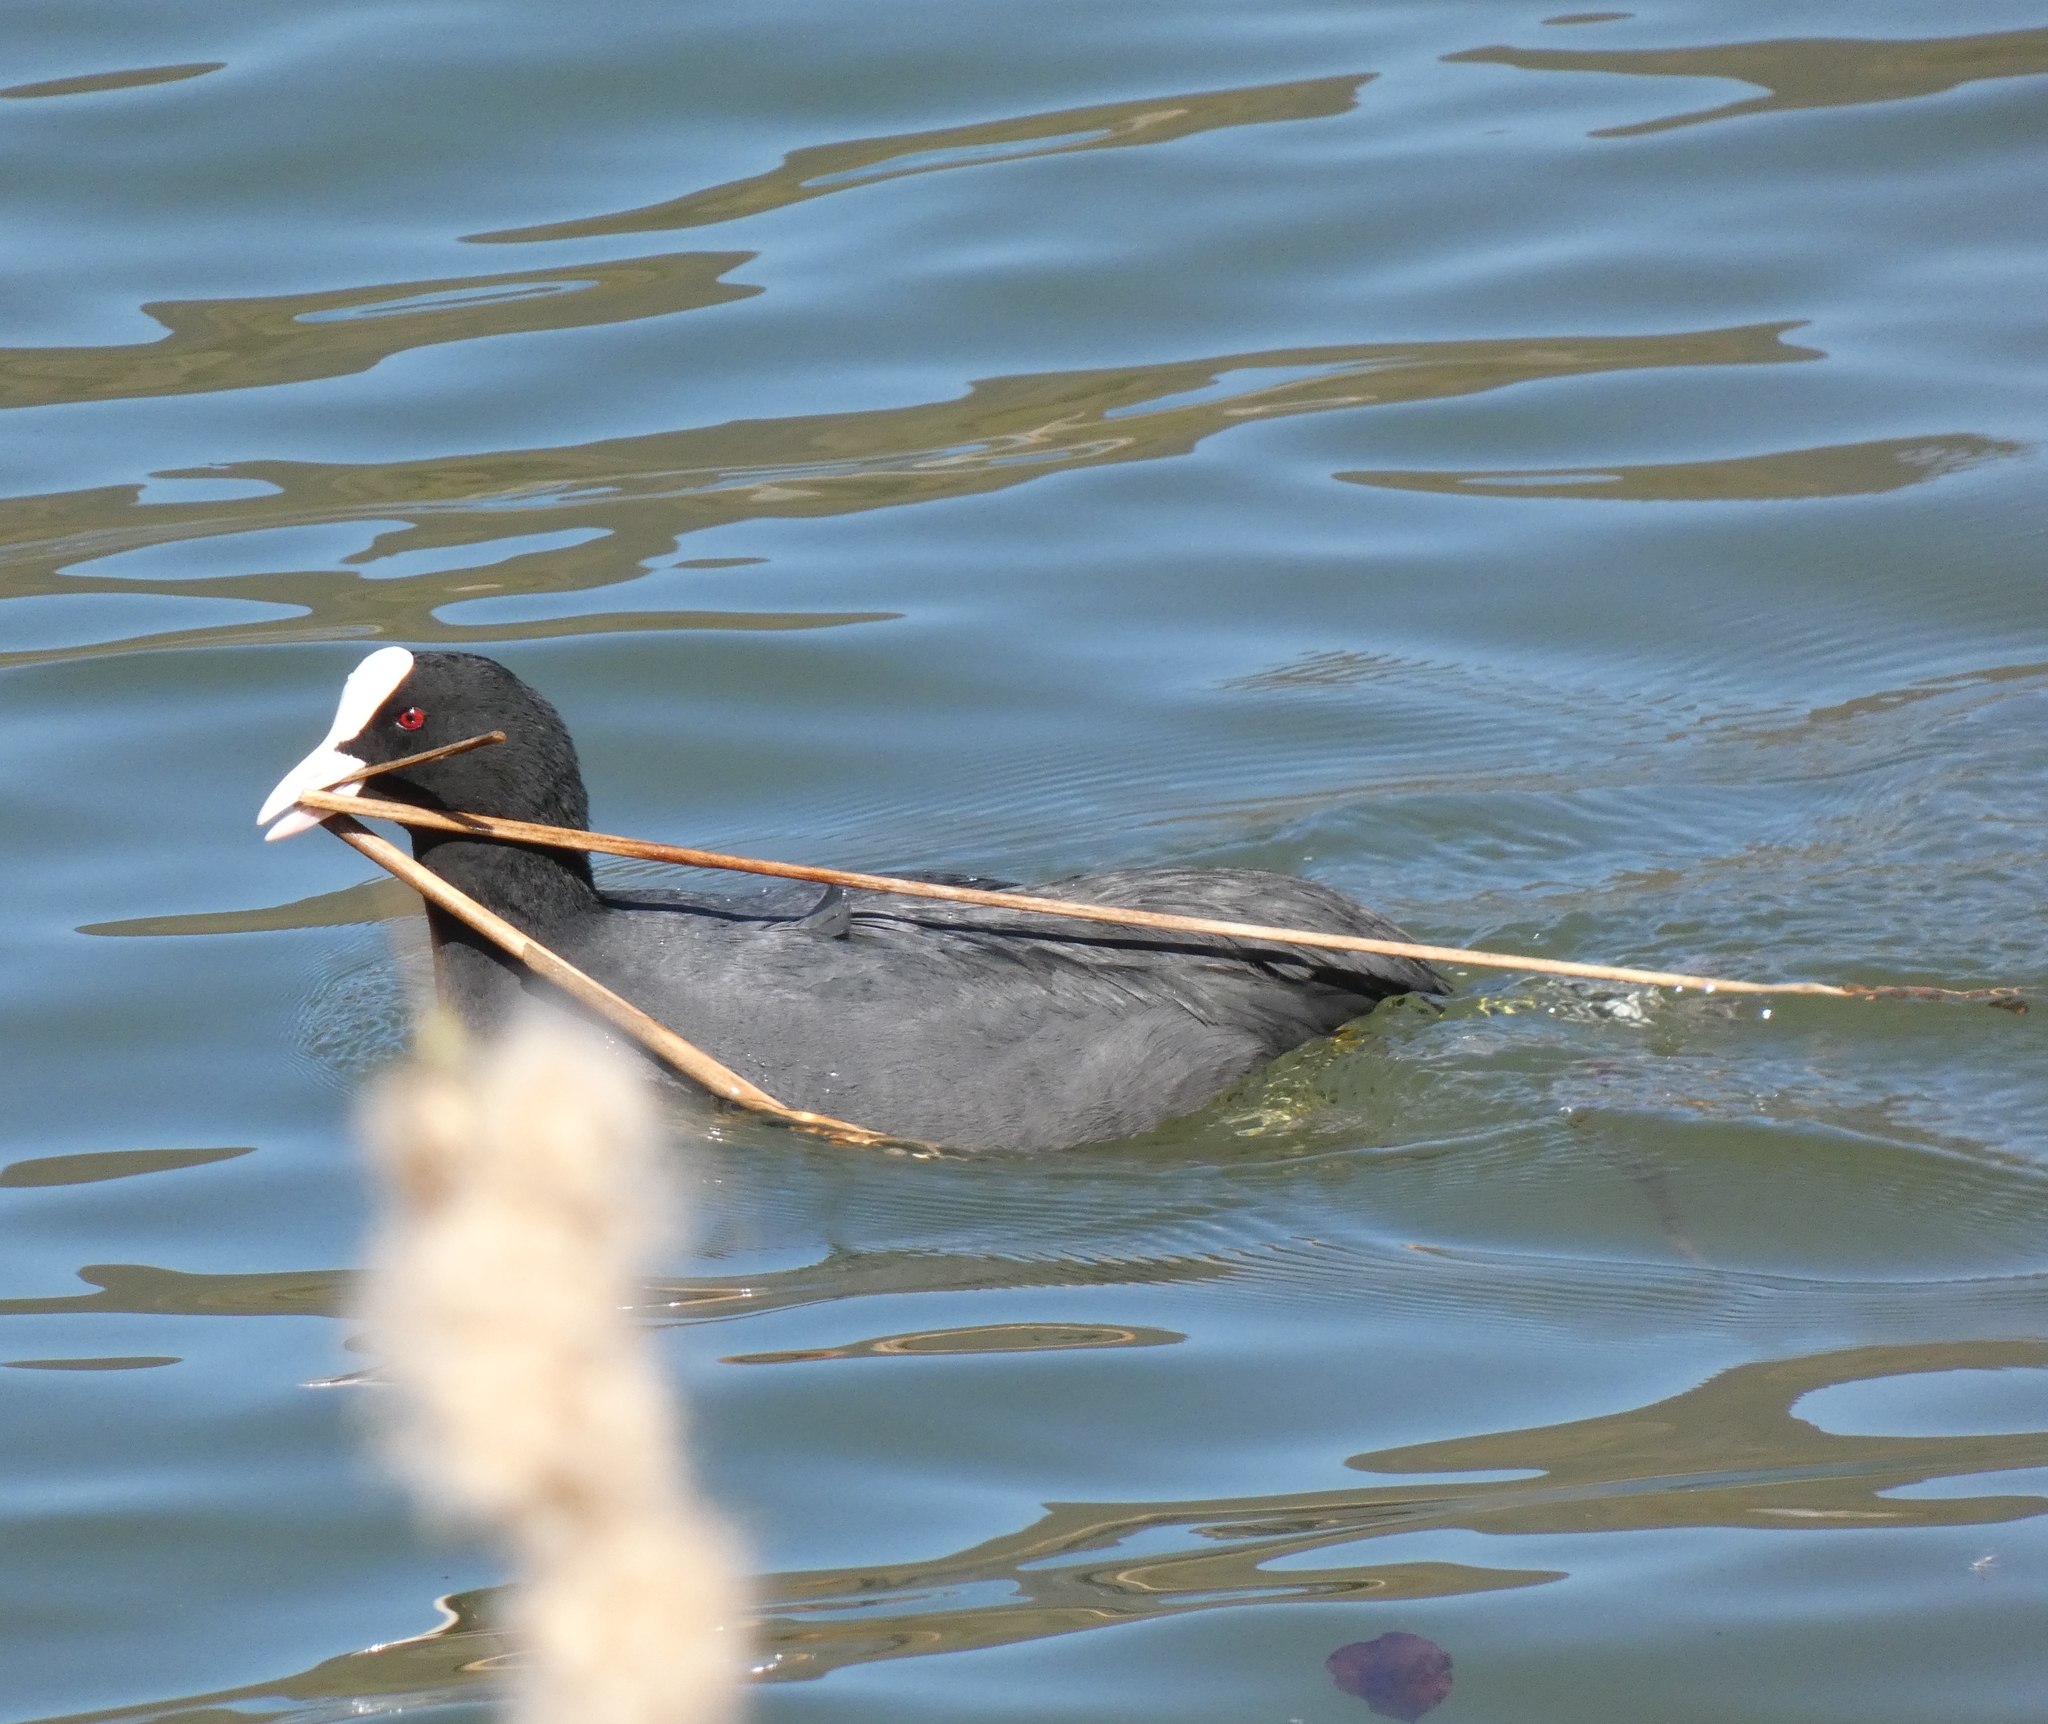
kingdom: Animalia
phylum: Chordata
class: Aves
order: Gruiformes
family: Rallidae
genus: Fulica
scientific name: Fulica atra
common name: Eurasian coot
